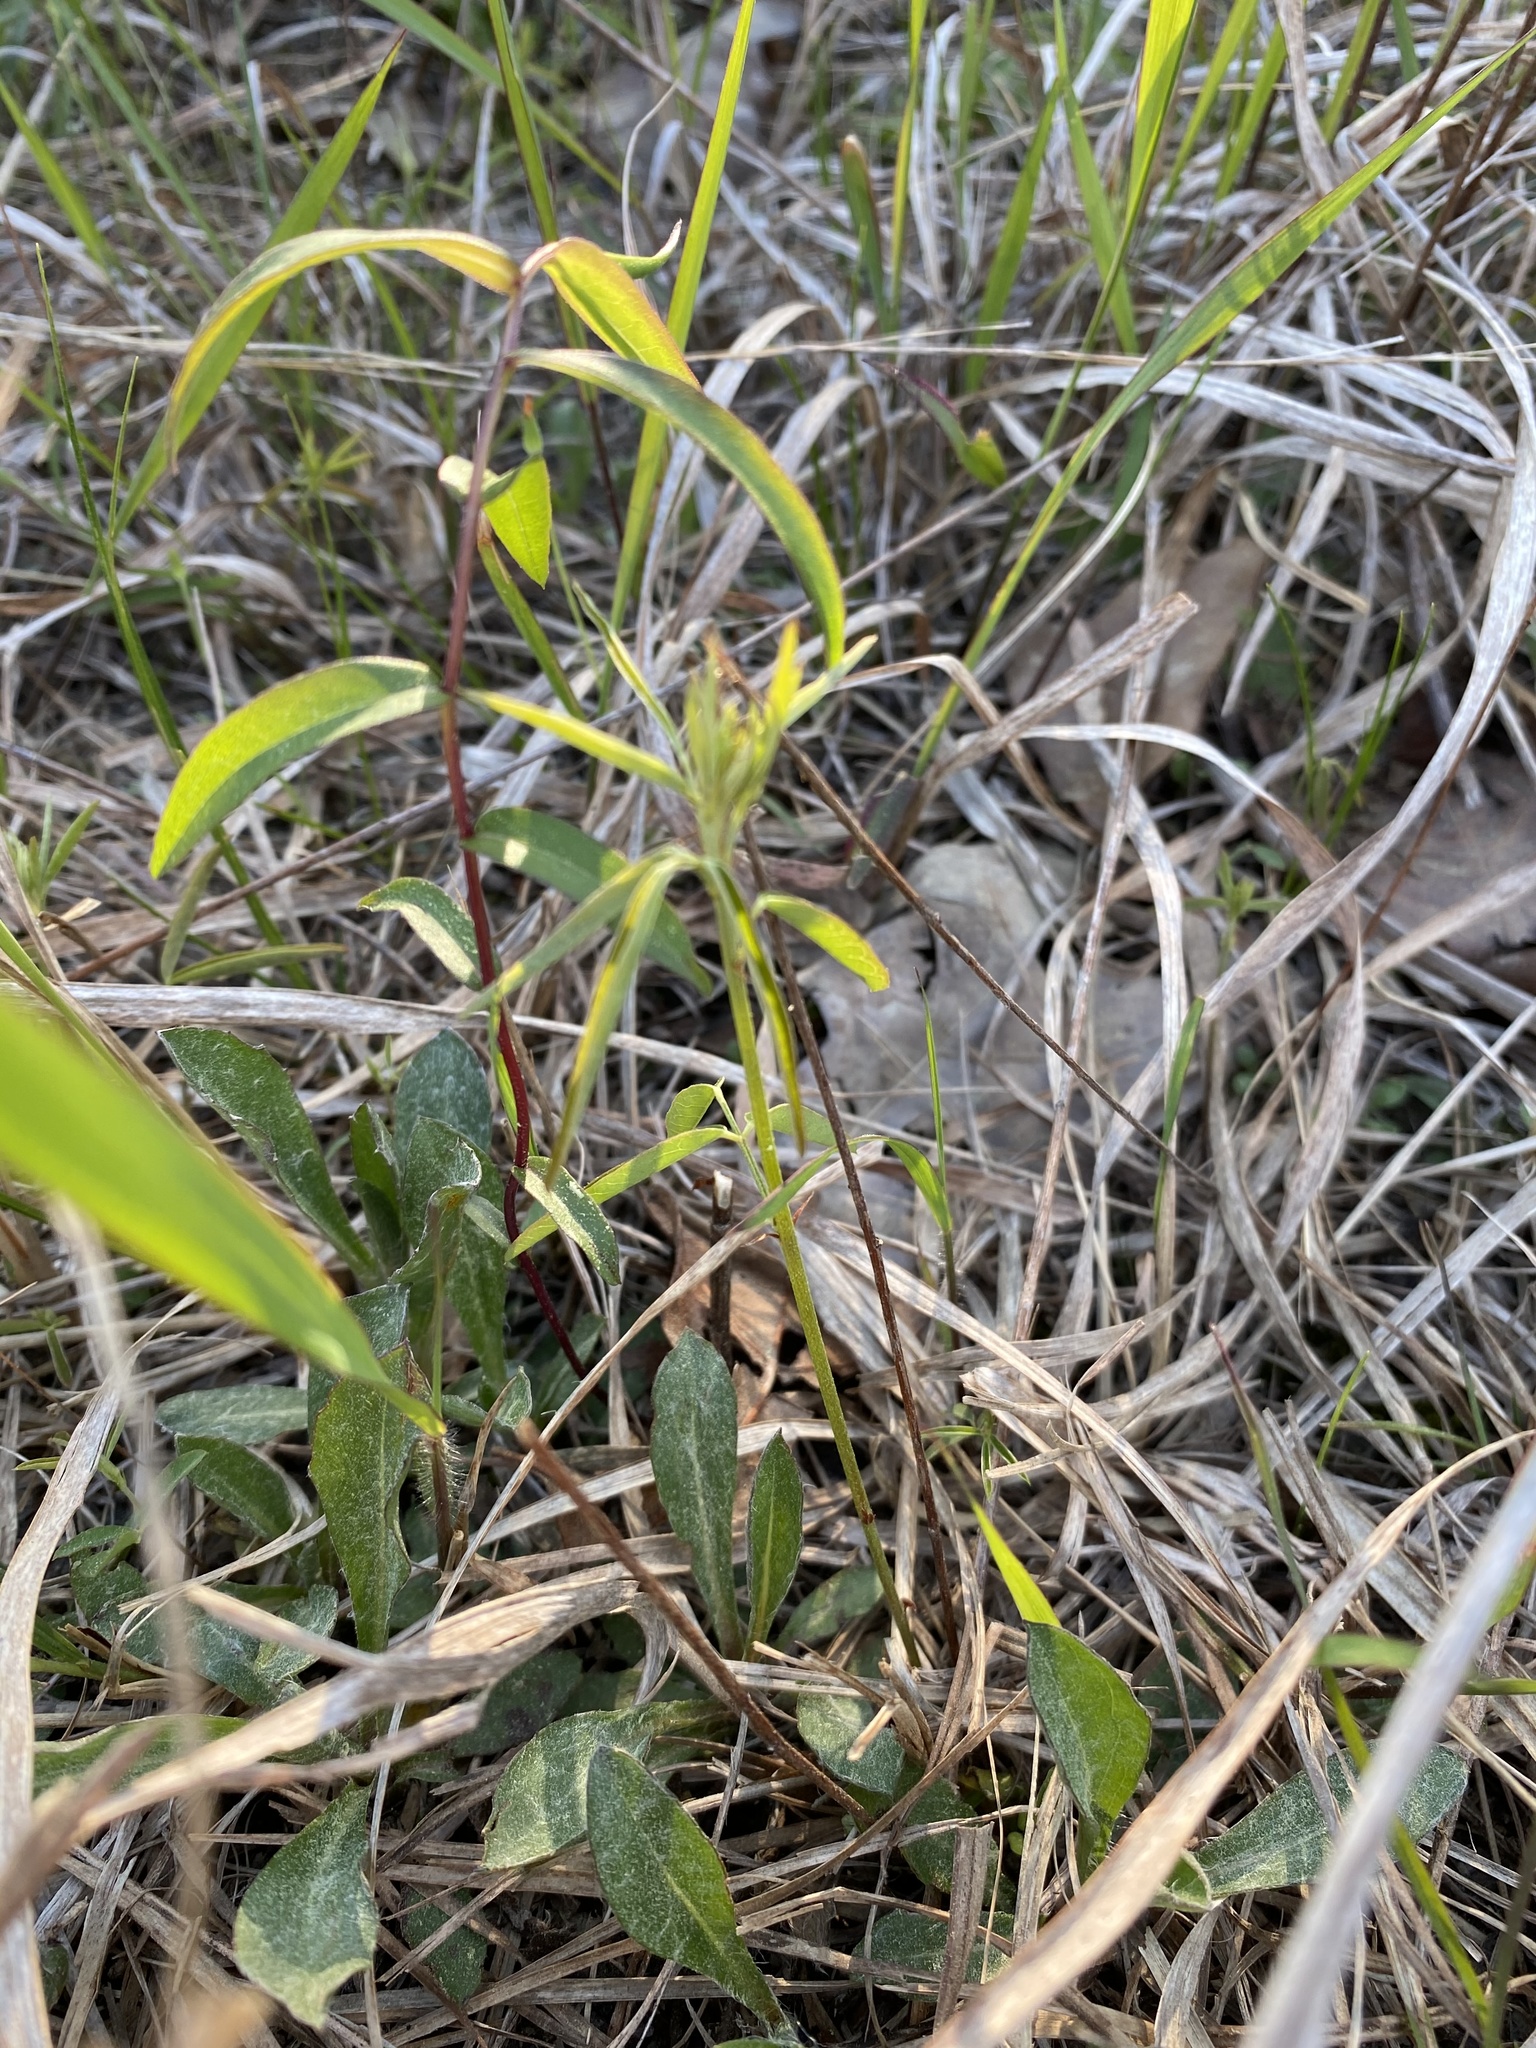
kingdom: Plantae
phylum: Tracheophyta
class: Magnoliopsida
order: Fabales
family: Fabaceae
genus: Stylosanthes
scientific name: Stylosanthes biflora
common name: Two-flower pencil-flower
